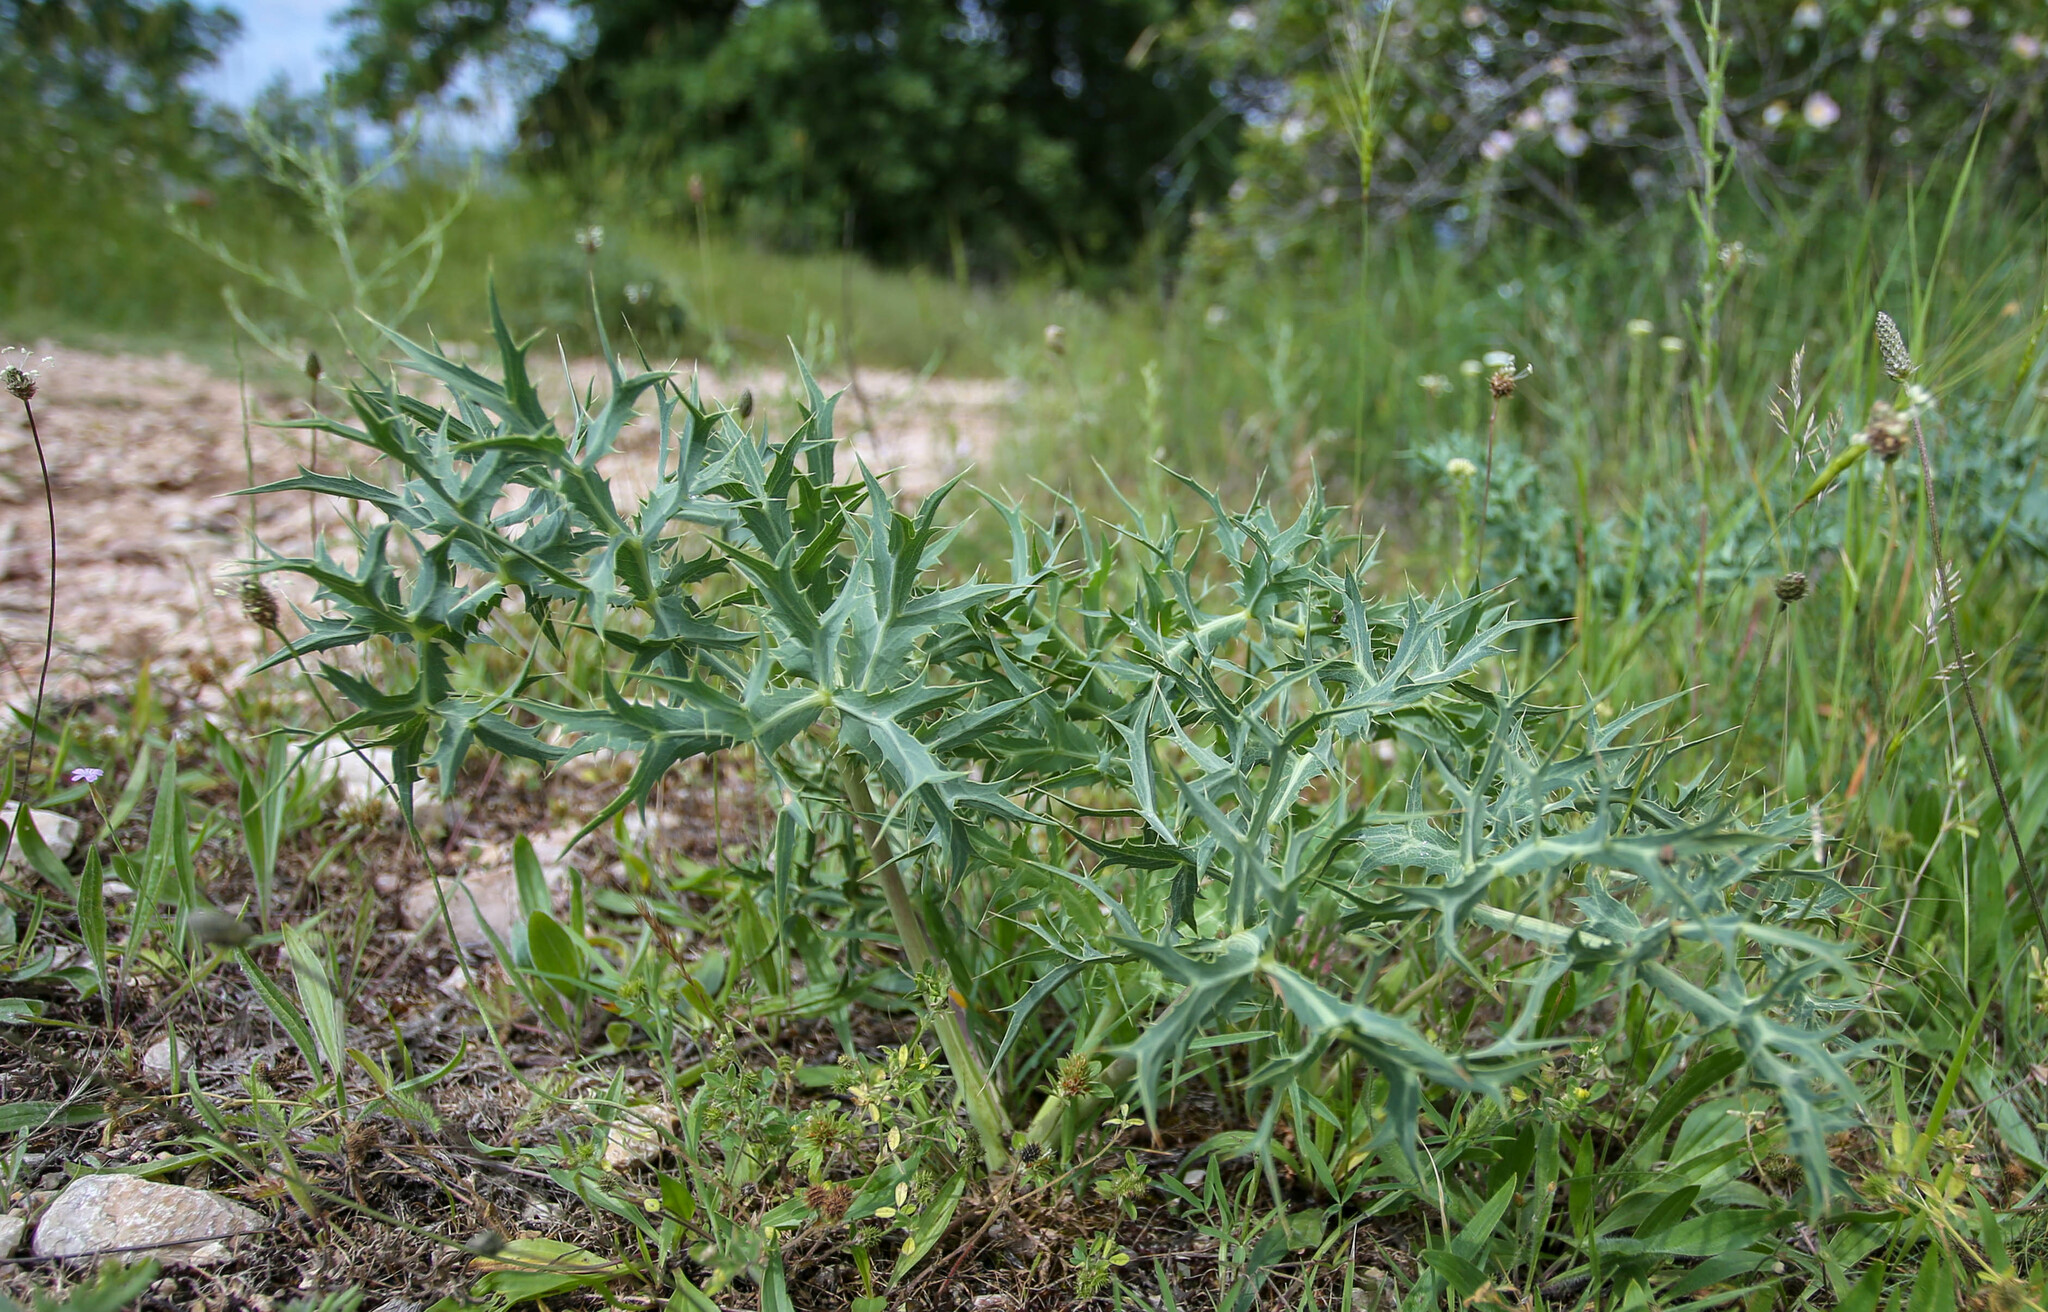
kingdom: Plantae
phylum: Tracheophyta
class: Magnoliopsida
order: Apiales
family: Apiaceae
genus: Eryngium
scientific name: Eryngium campestre
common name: Field eryngo
